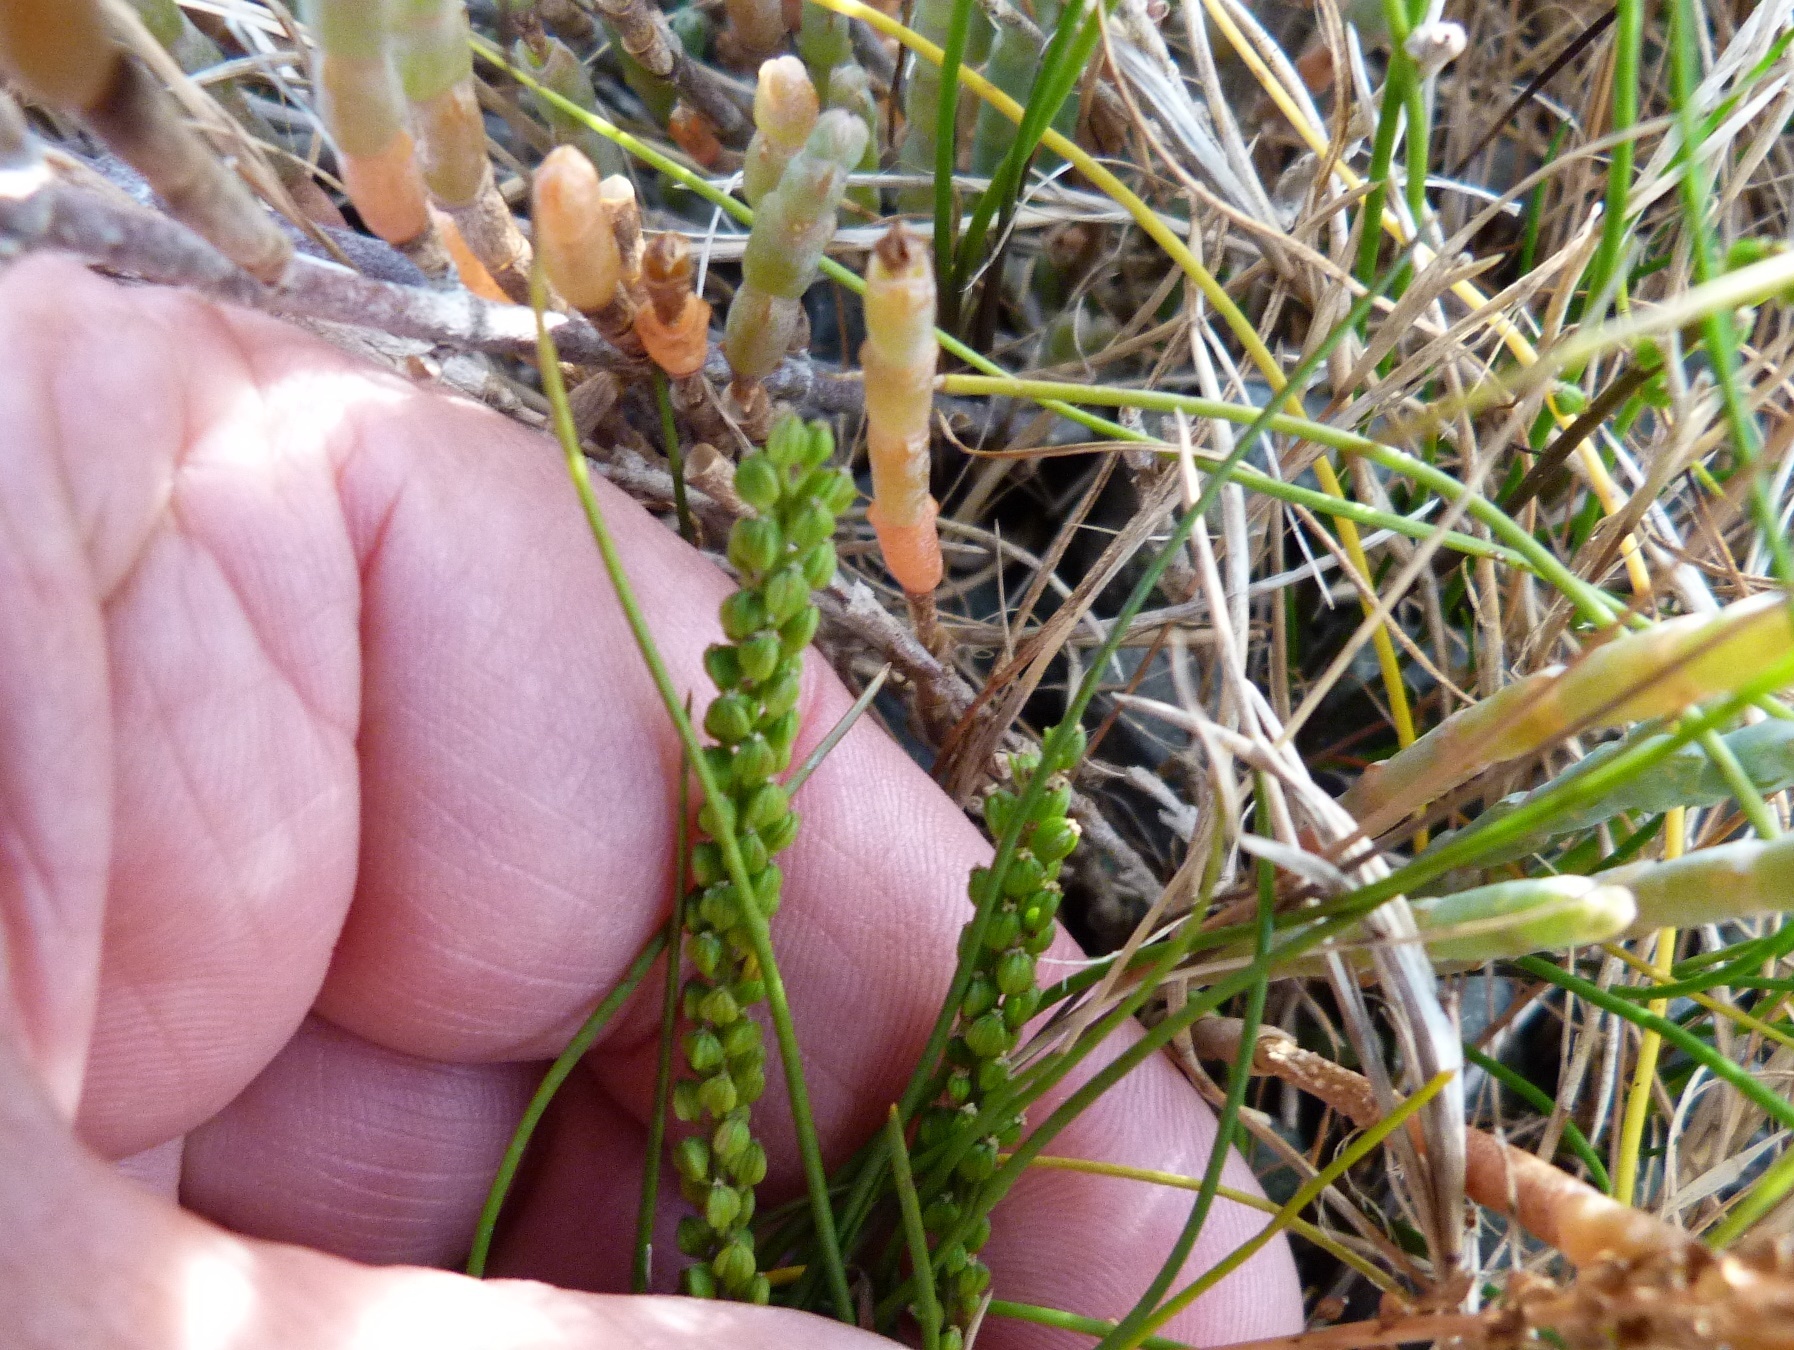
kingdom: Plantae
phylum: Tracheophyta
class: Liliopsida
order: Alismatales
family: Juncaginaceae
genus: Triglochin
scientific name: Triglochin striata
